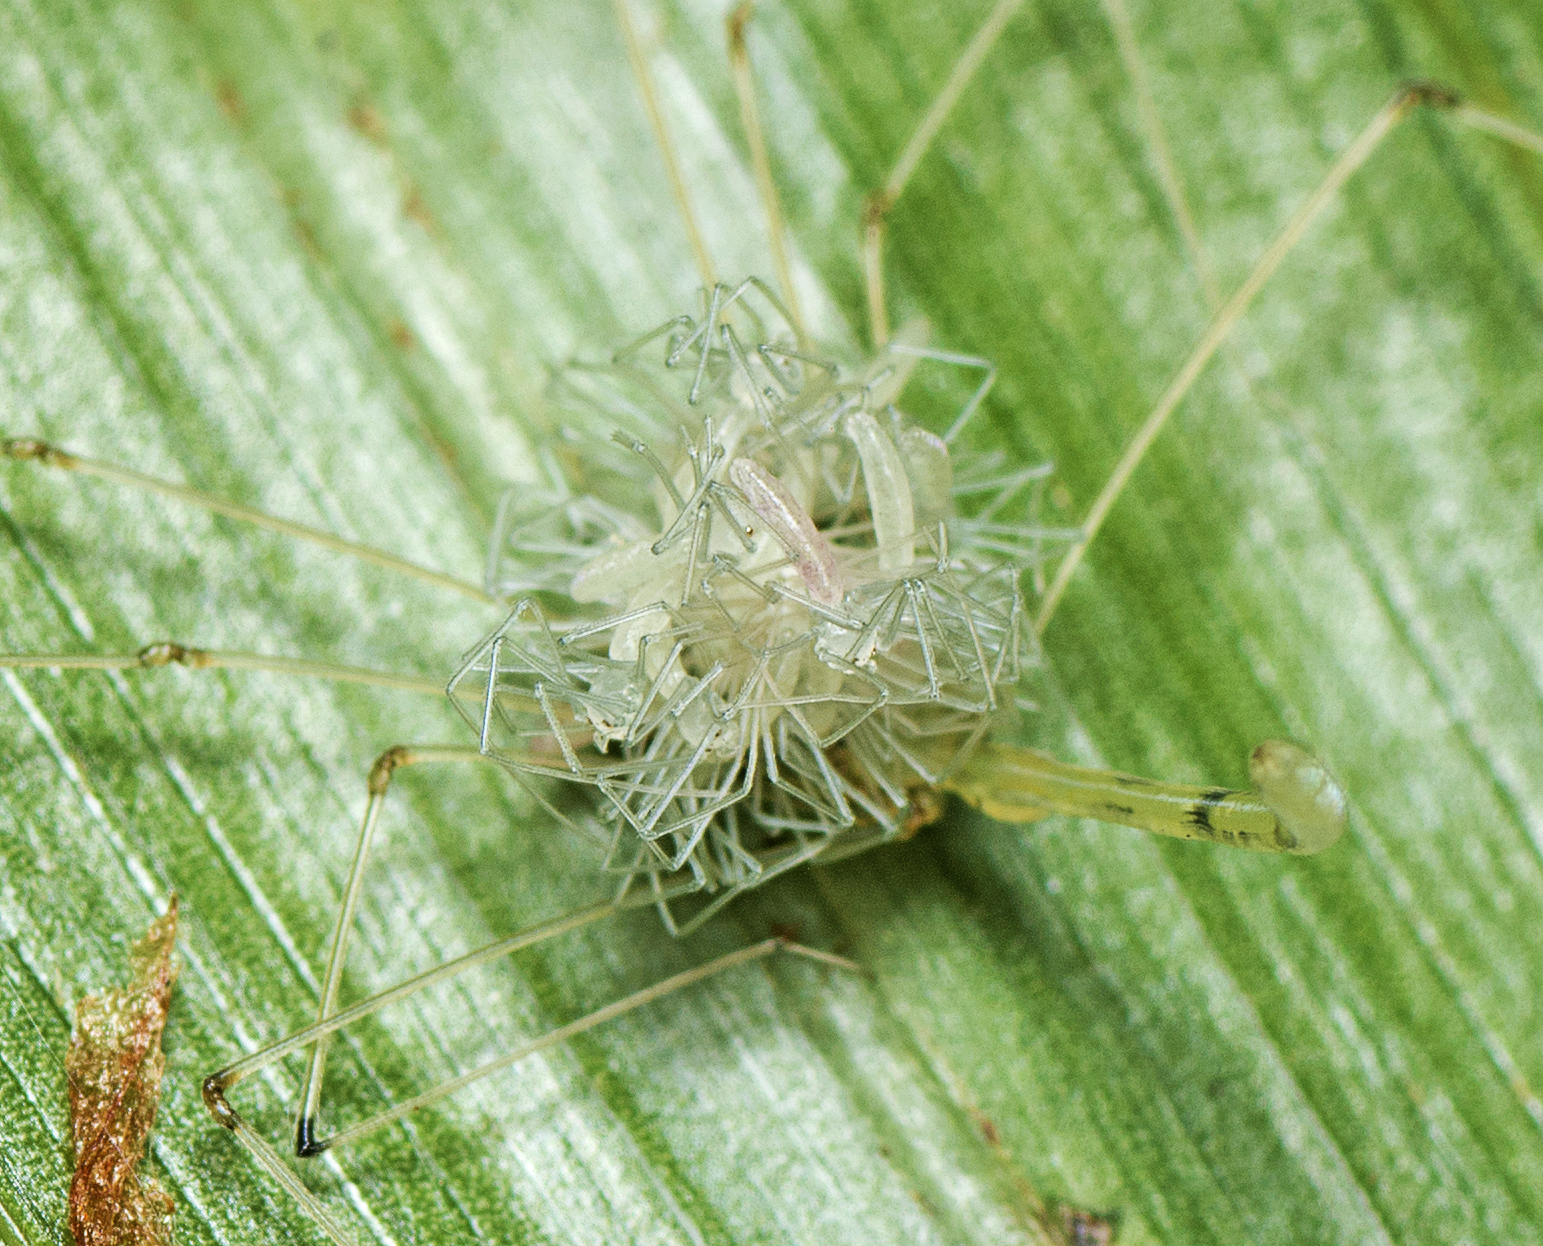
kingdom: Animalia
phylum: Arthropoda
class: Arachnida
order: Araneae
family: Pholcidae
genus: Micromerys
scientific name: Micromerys raveni
